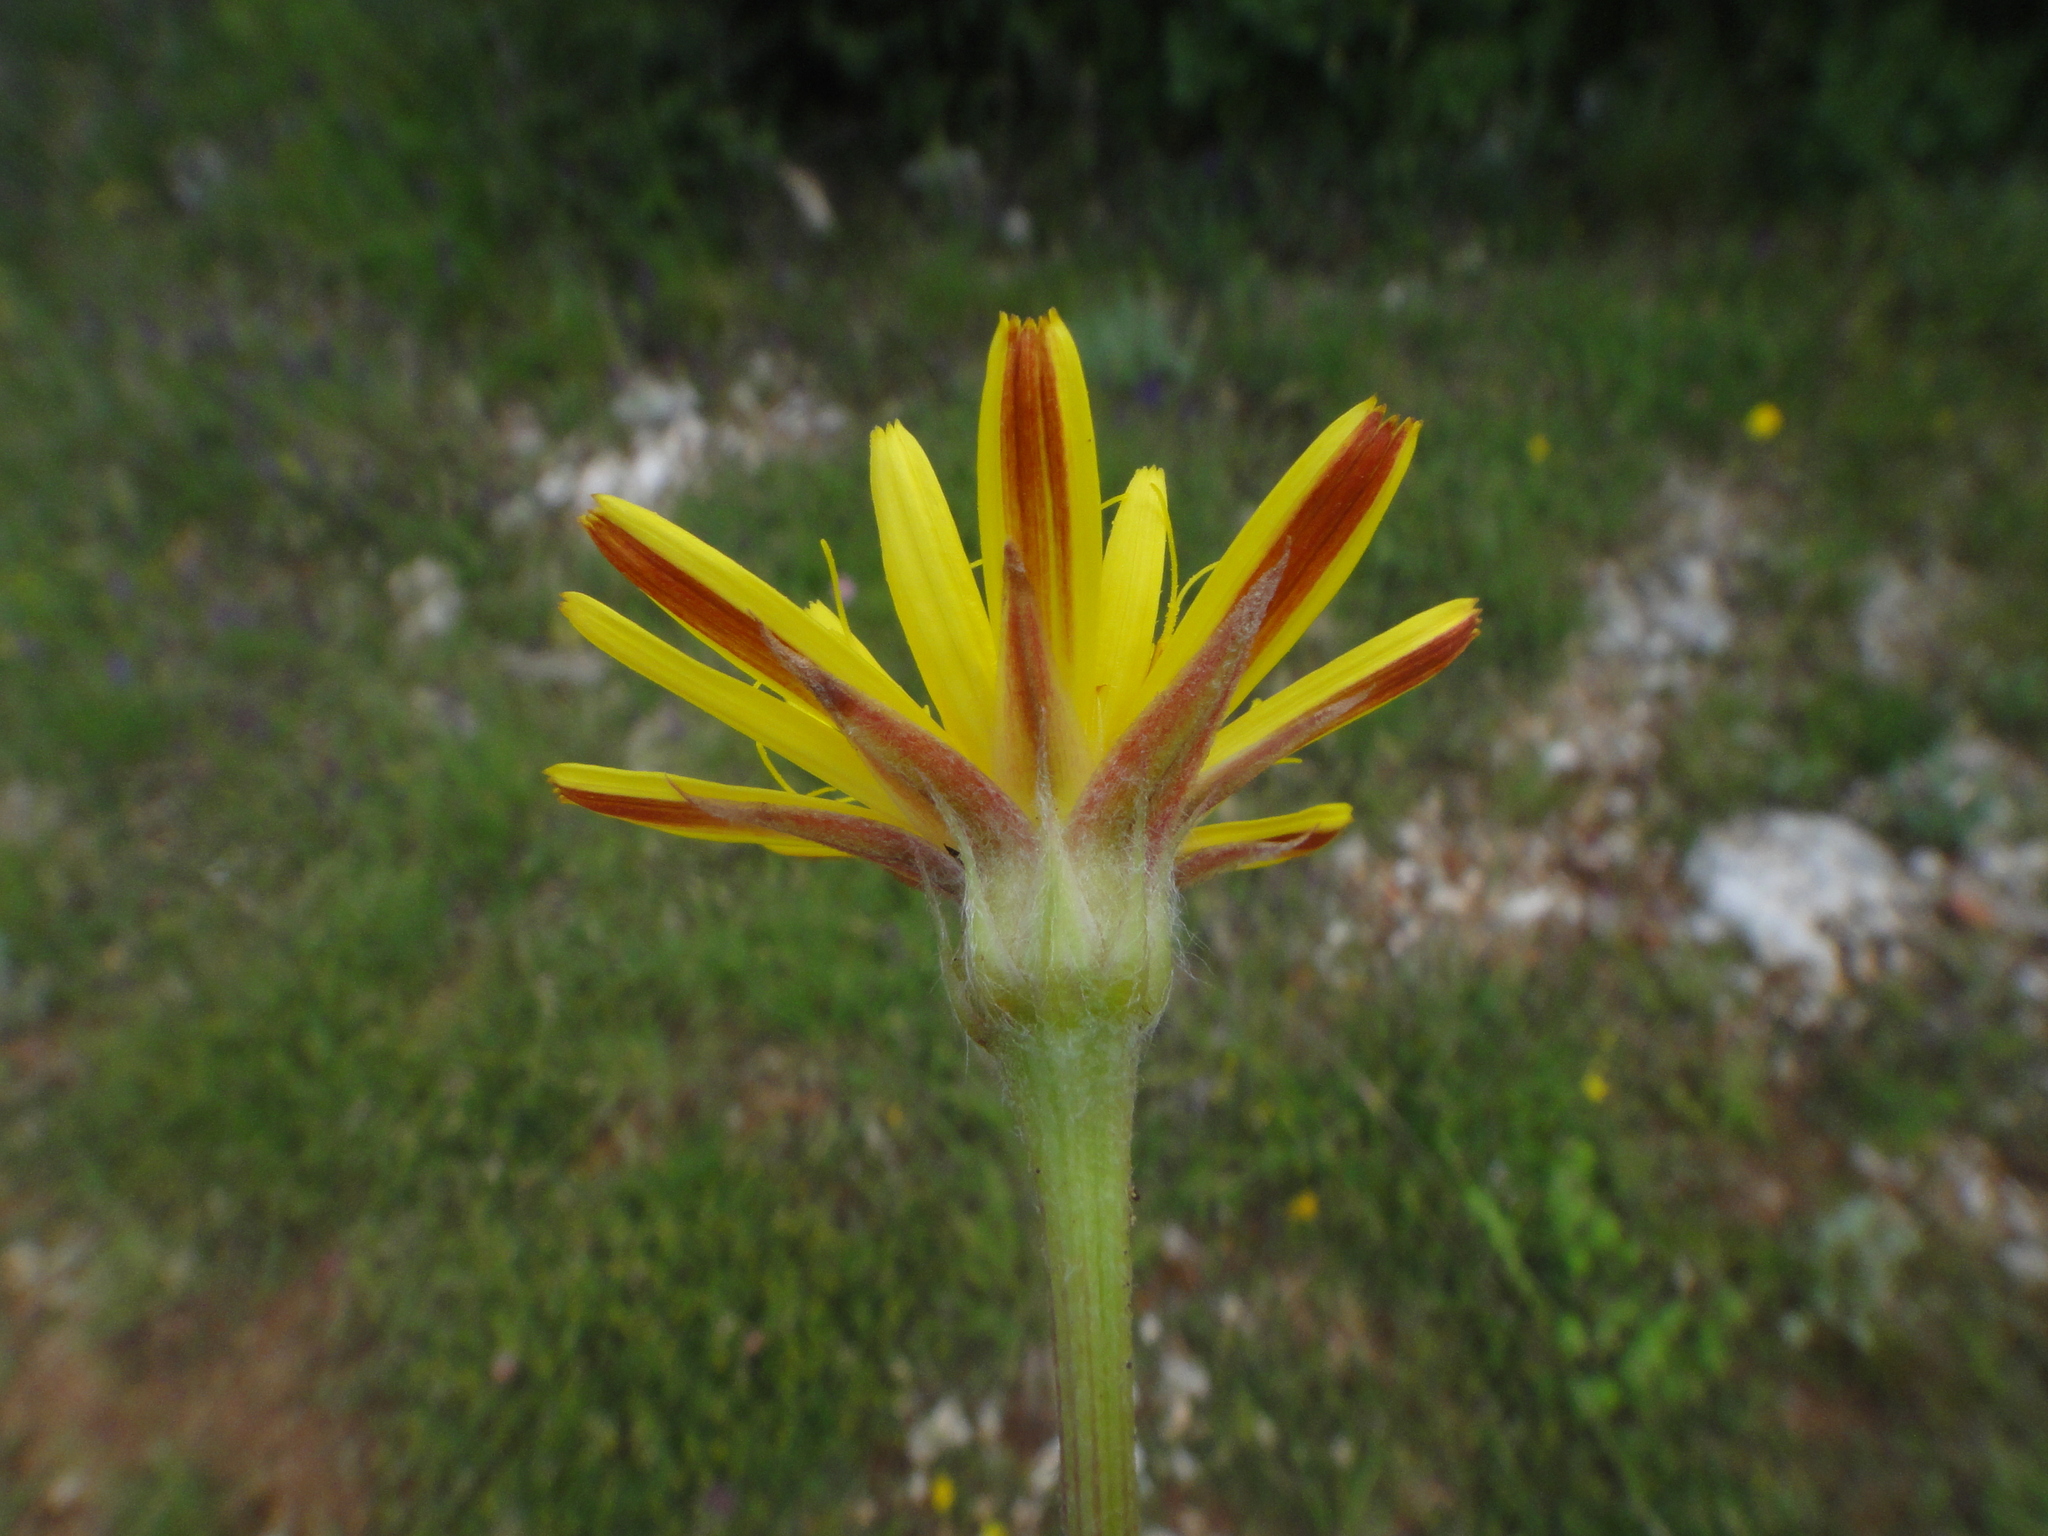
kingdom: Plantae
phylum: Tracheophyta
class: Magnoliopsida
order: Asterales
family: Asteraceae
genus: Gelasia
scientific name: Gelasia villosa
